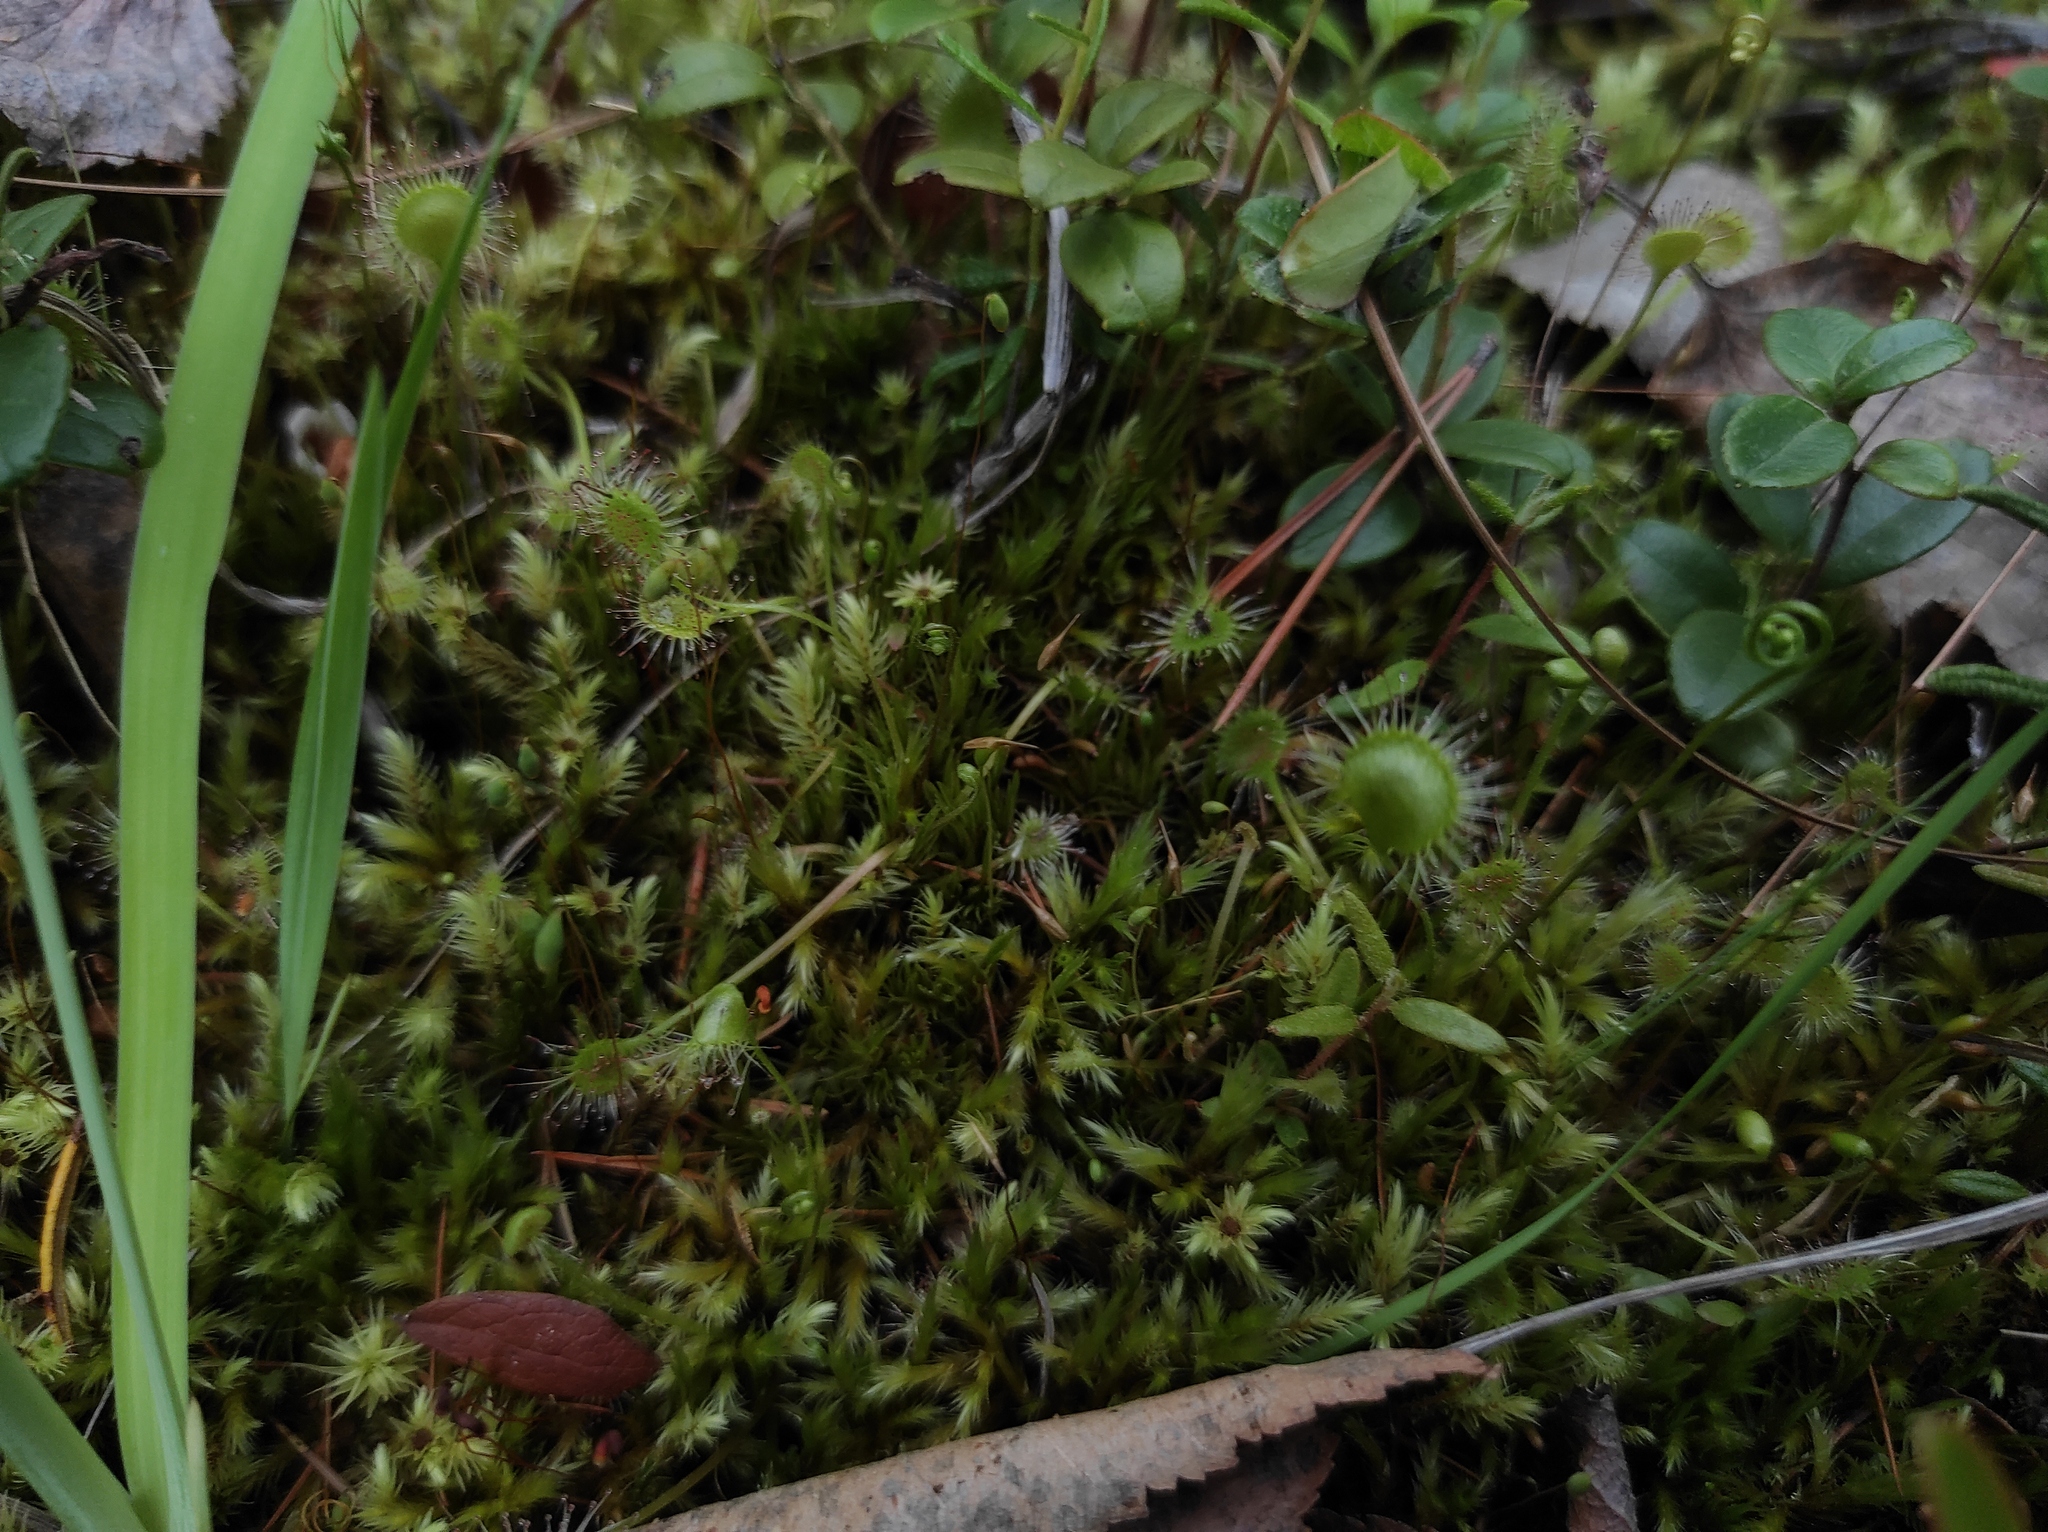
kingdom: Plantae
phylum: Tracheophyta
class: Magnoliopsida
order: Caryophyllales
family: Droseraceae
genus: Drosera
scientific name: Drosera rotundifolia
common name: Round-leaved sundew
